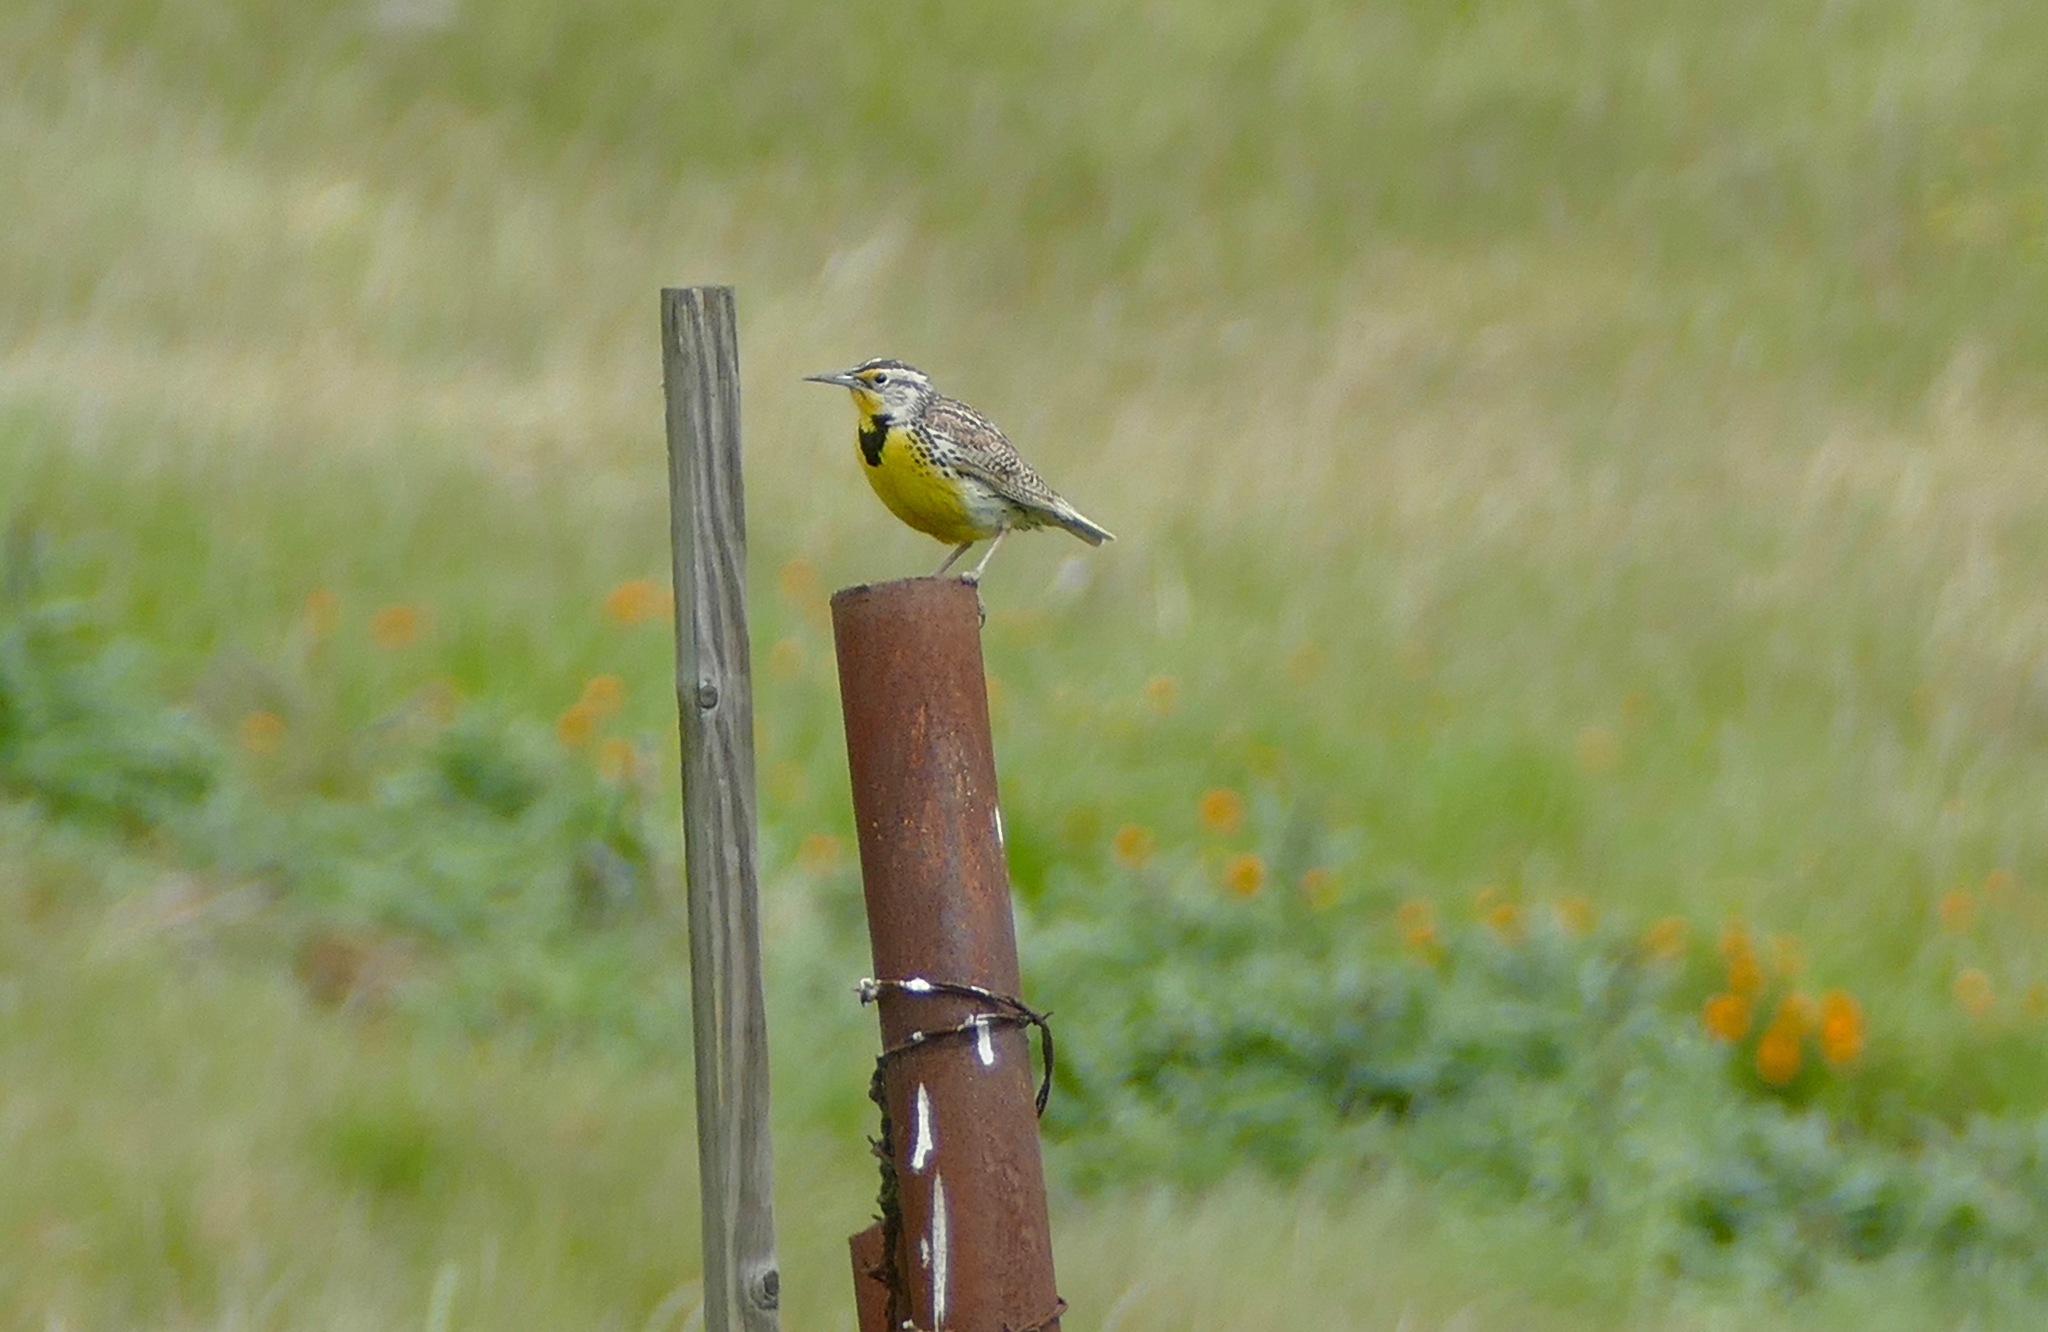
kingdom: Animalia
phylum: Chordata
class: Aves
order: Passeriformes
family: Icteridae
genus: Sturnella
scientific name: Sturnella neglecta
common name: Western meadowlark
